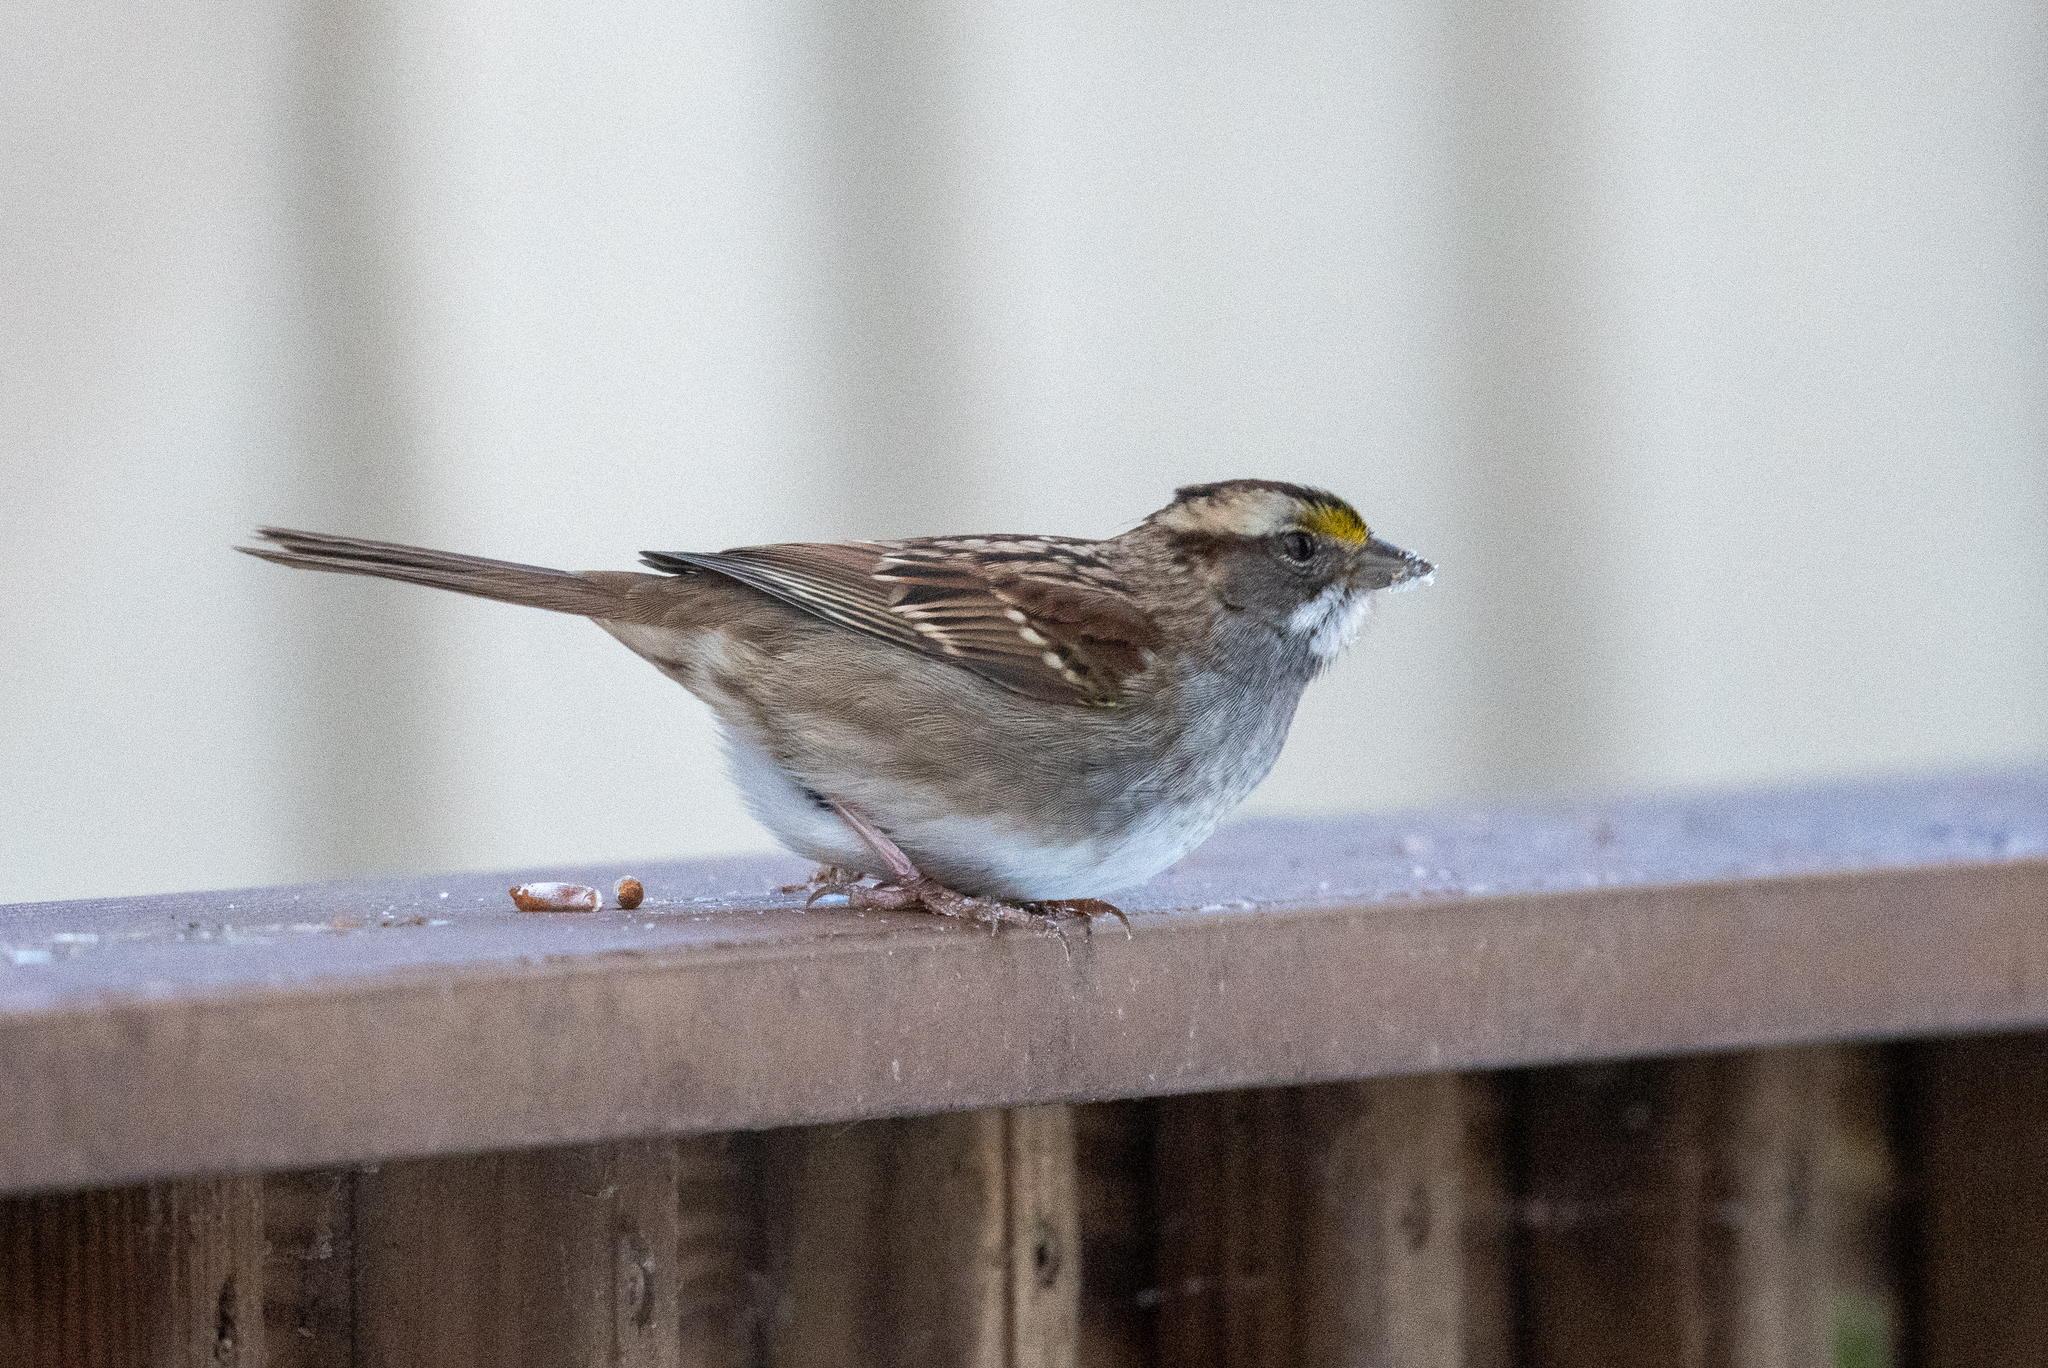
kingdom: Animalia
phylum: Chordata
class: Aves
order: Passeriformes
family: Passerellidae
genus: Zonotrichia
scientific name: Zonotrichia albicollis
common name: White-throated sparrow
